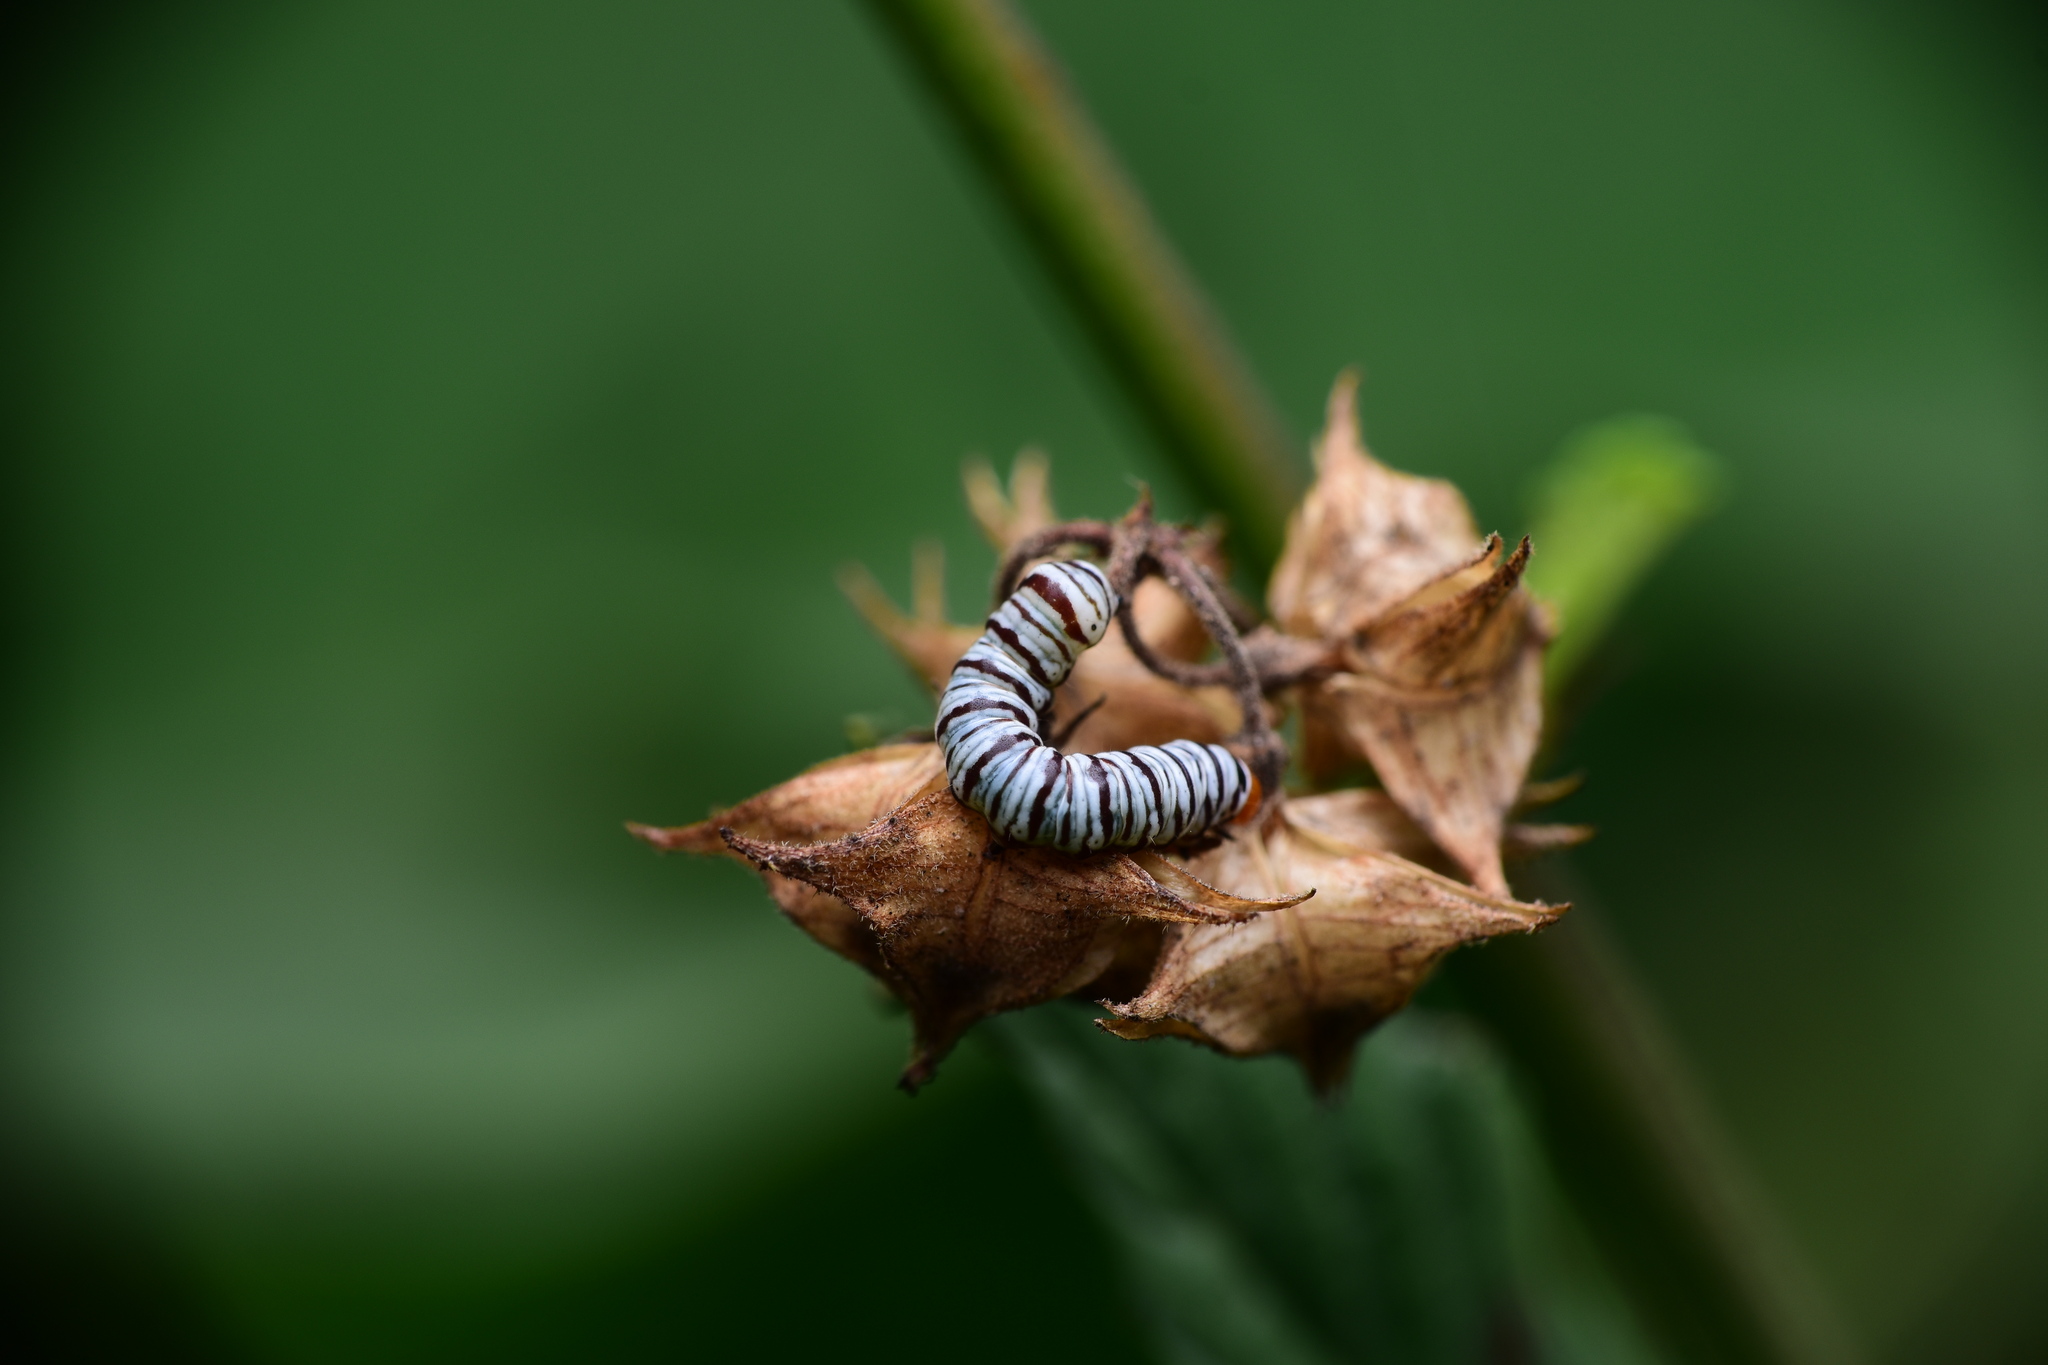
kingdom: Animalia
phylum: Arthropoda
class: Insecta
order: Lepidoptera
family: Erebidae
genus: Diphthera
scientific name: Diphthera festiva
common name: Hieroglyphic moth
